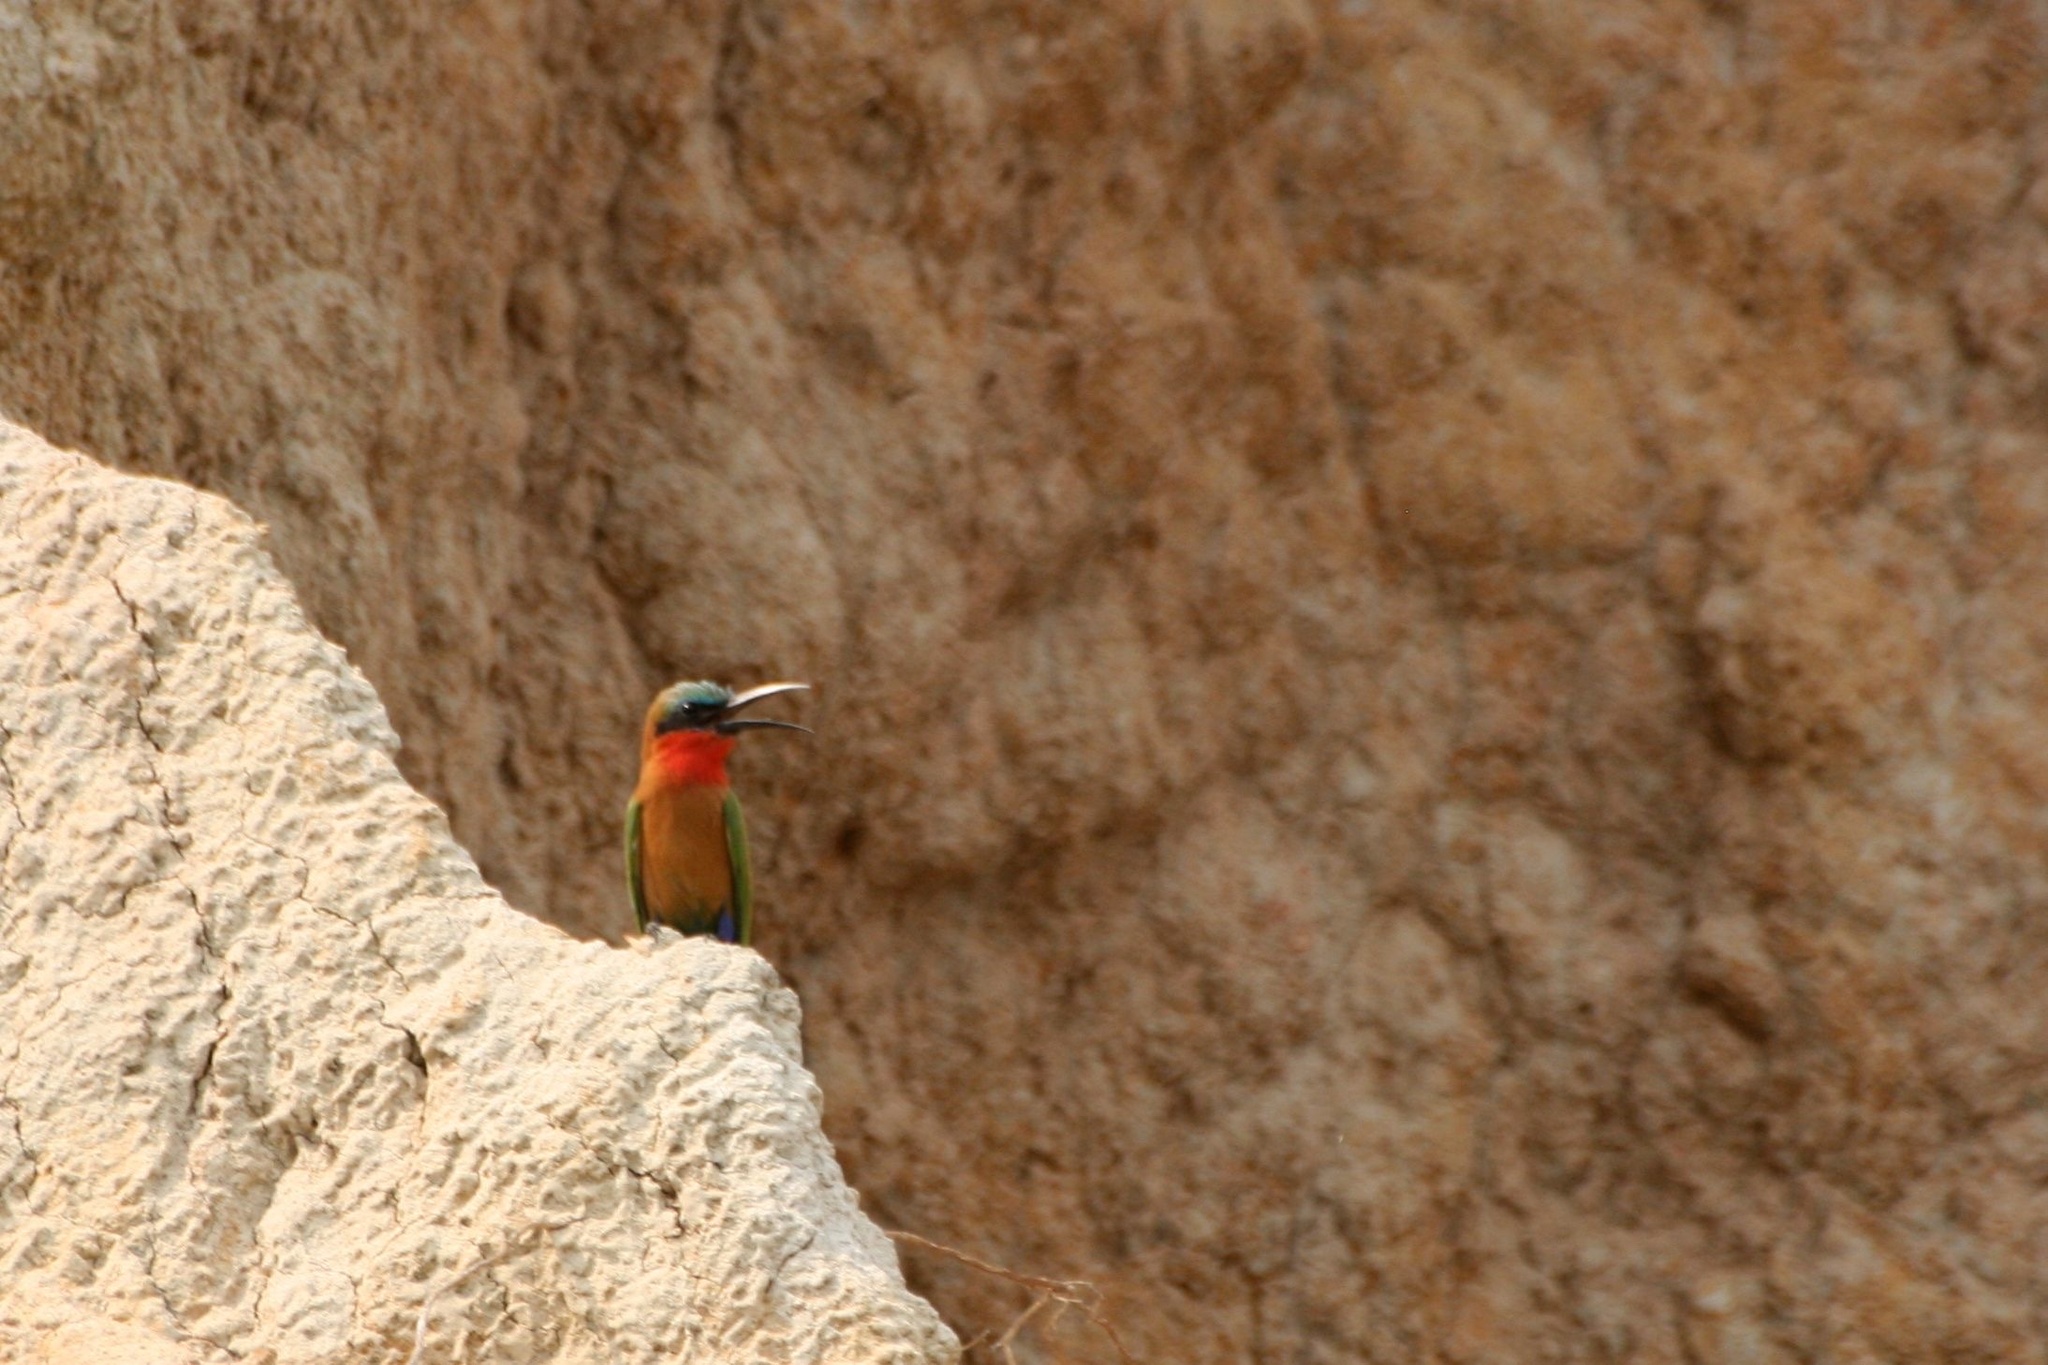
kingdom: Animalia
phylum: Chordata
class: Aves
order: Coraciiformes
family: Meropidae
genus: Merops
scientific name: Merops bulocki
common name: Red-throated bee-eater
